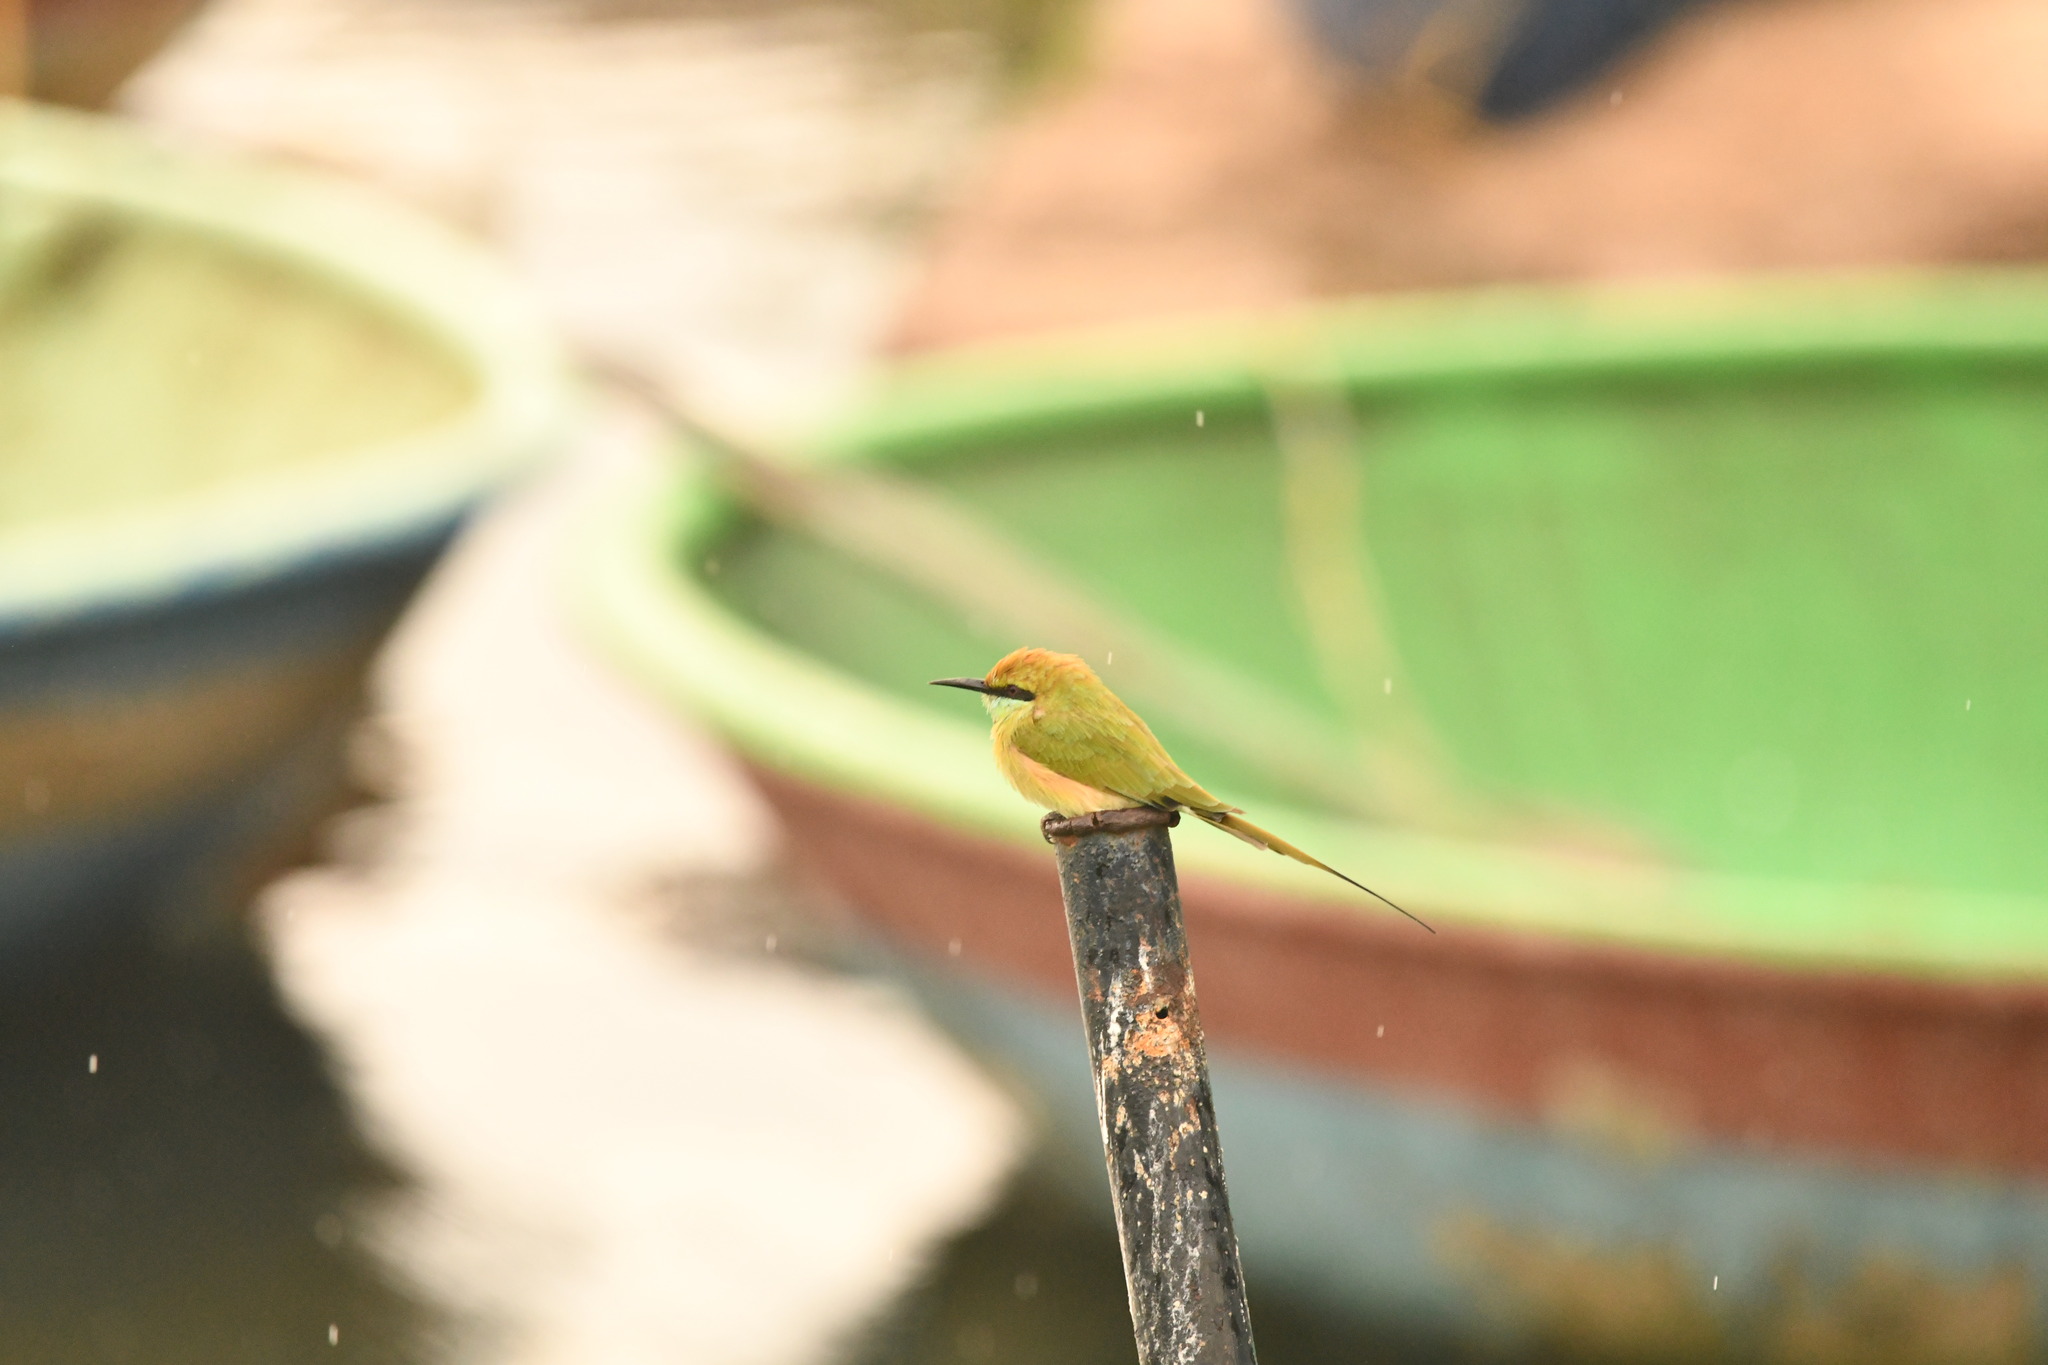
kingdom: Animalia
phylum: Chordata
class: Aves
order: Coraciiformes
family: Meropidae
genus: Merops
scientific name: Merops orientalis
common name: Green bee-eater
